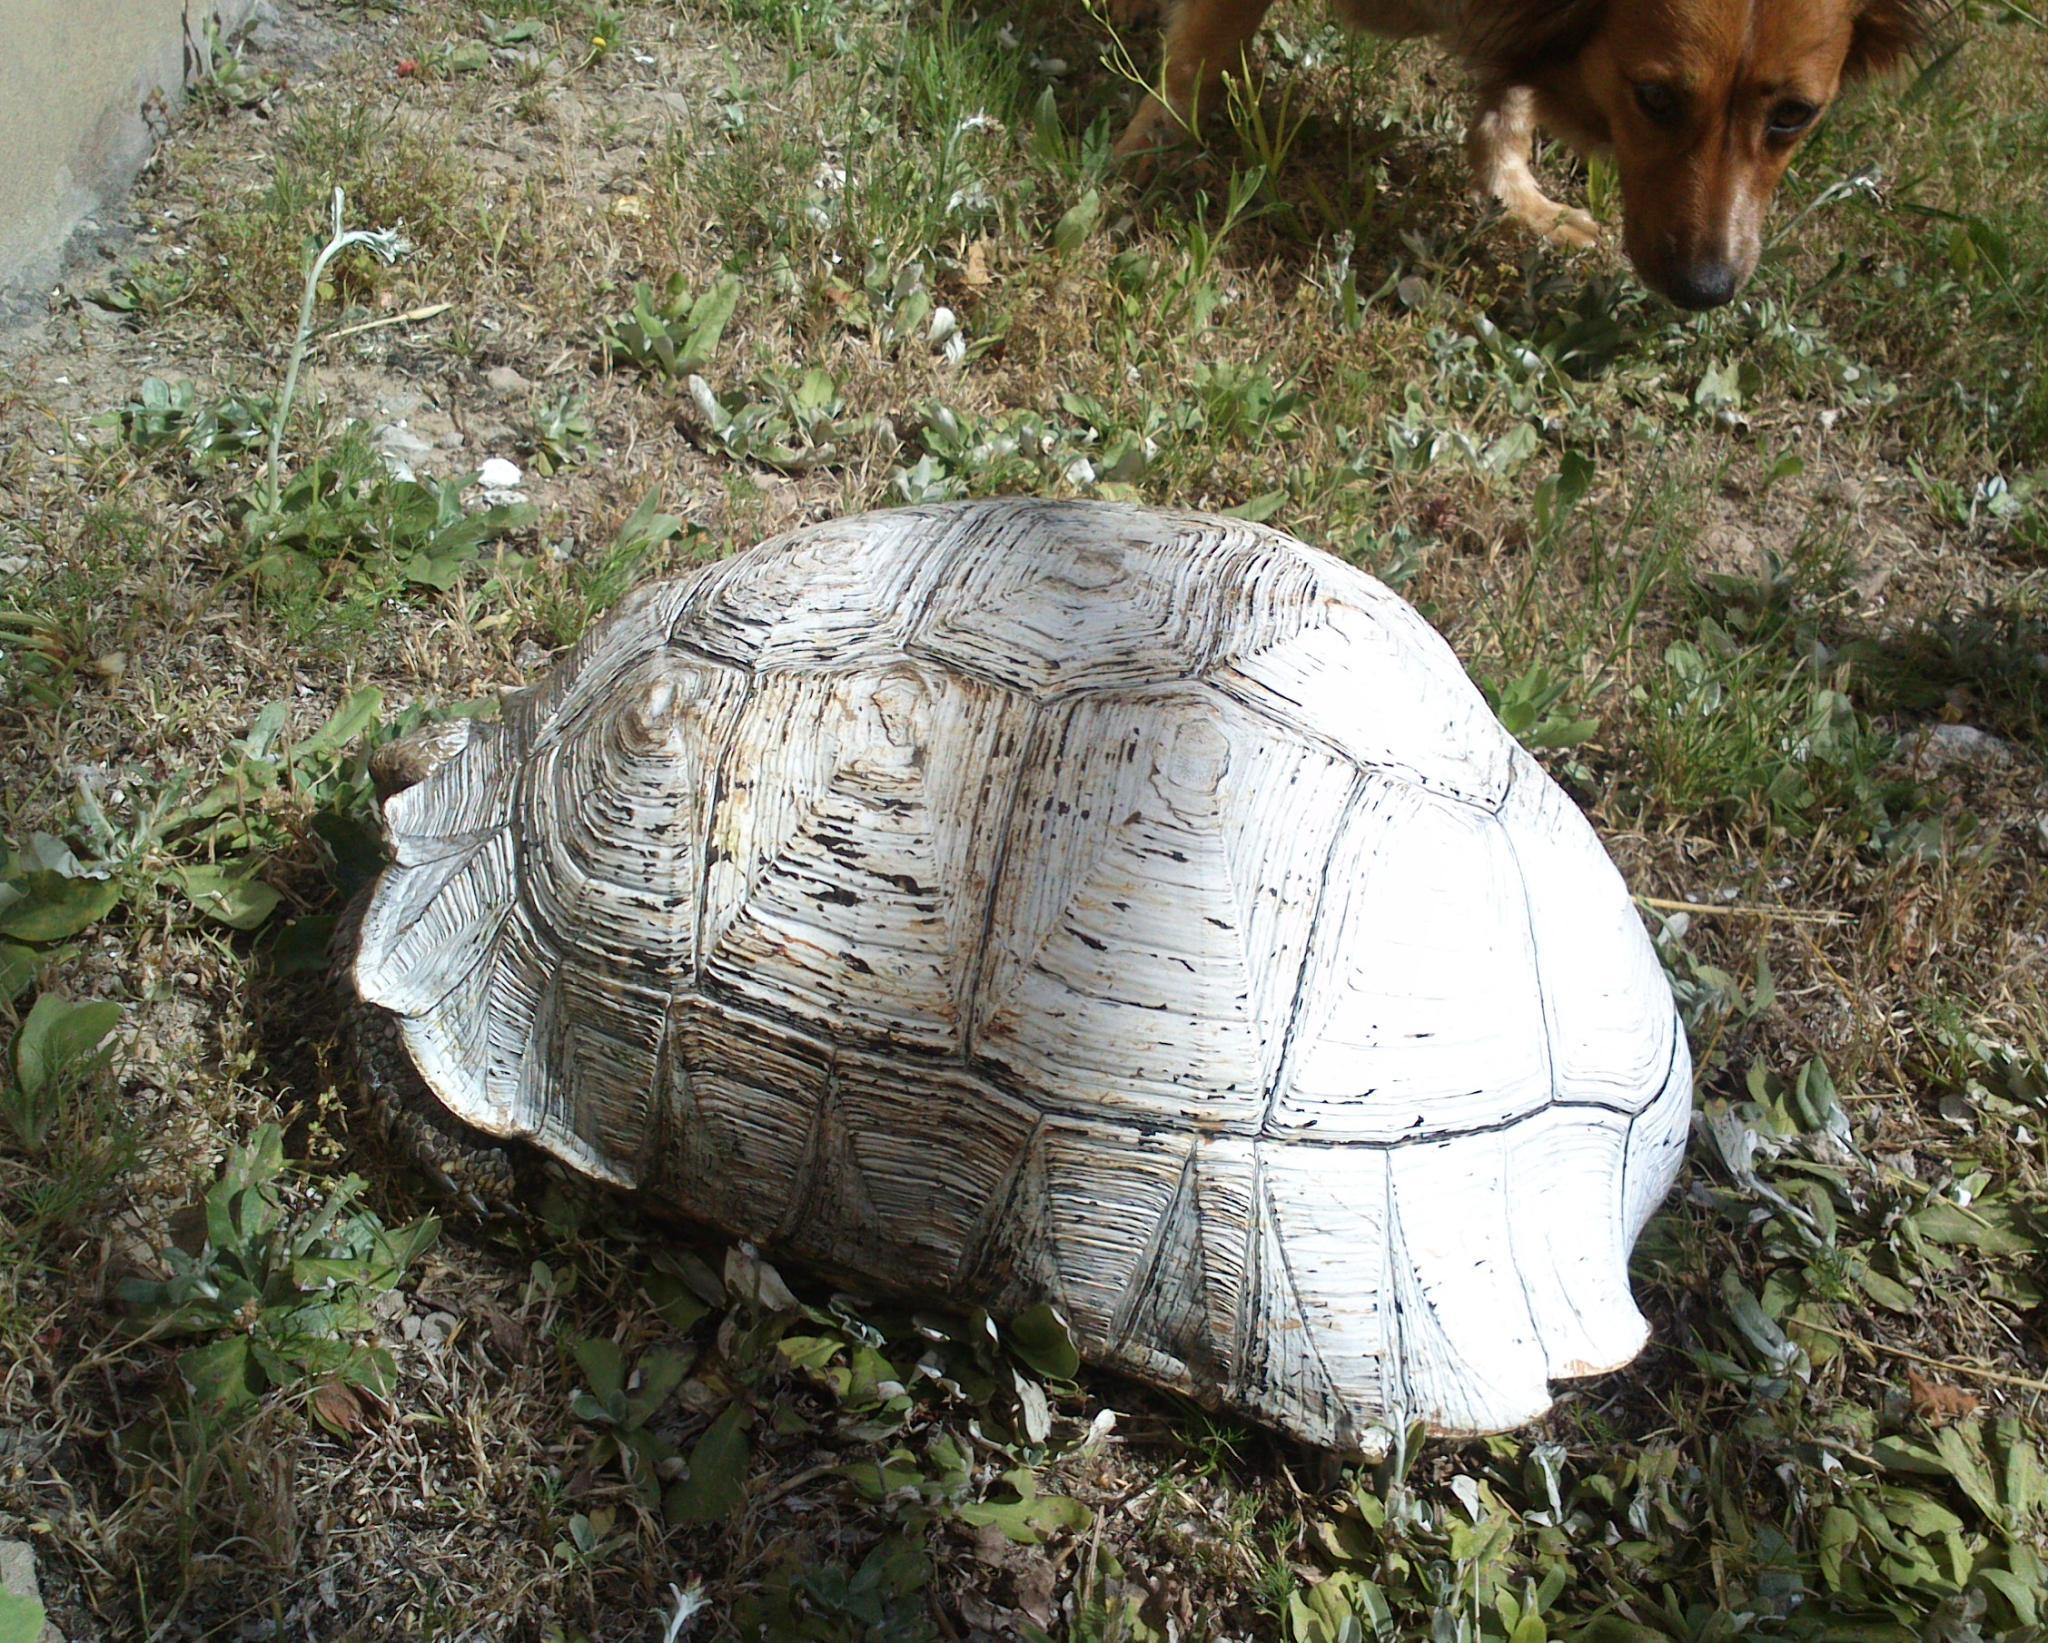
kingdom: Animalia
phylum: Chordata
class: Testudines
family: Testudinidae
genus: Stigmochelys
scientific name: Stigmochelys pardalis
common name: Leopard tortoise
